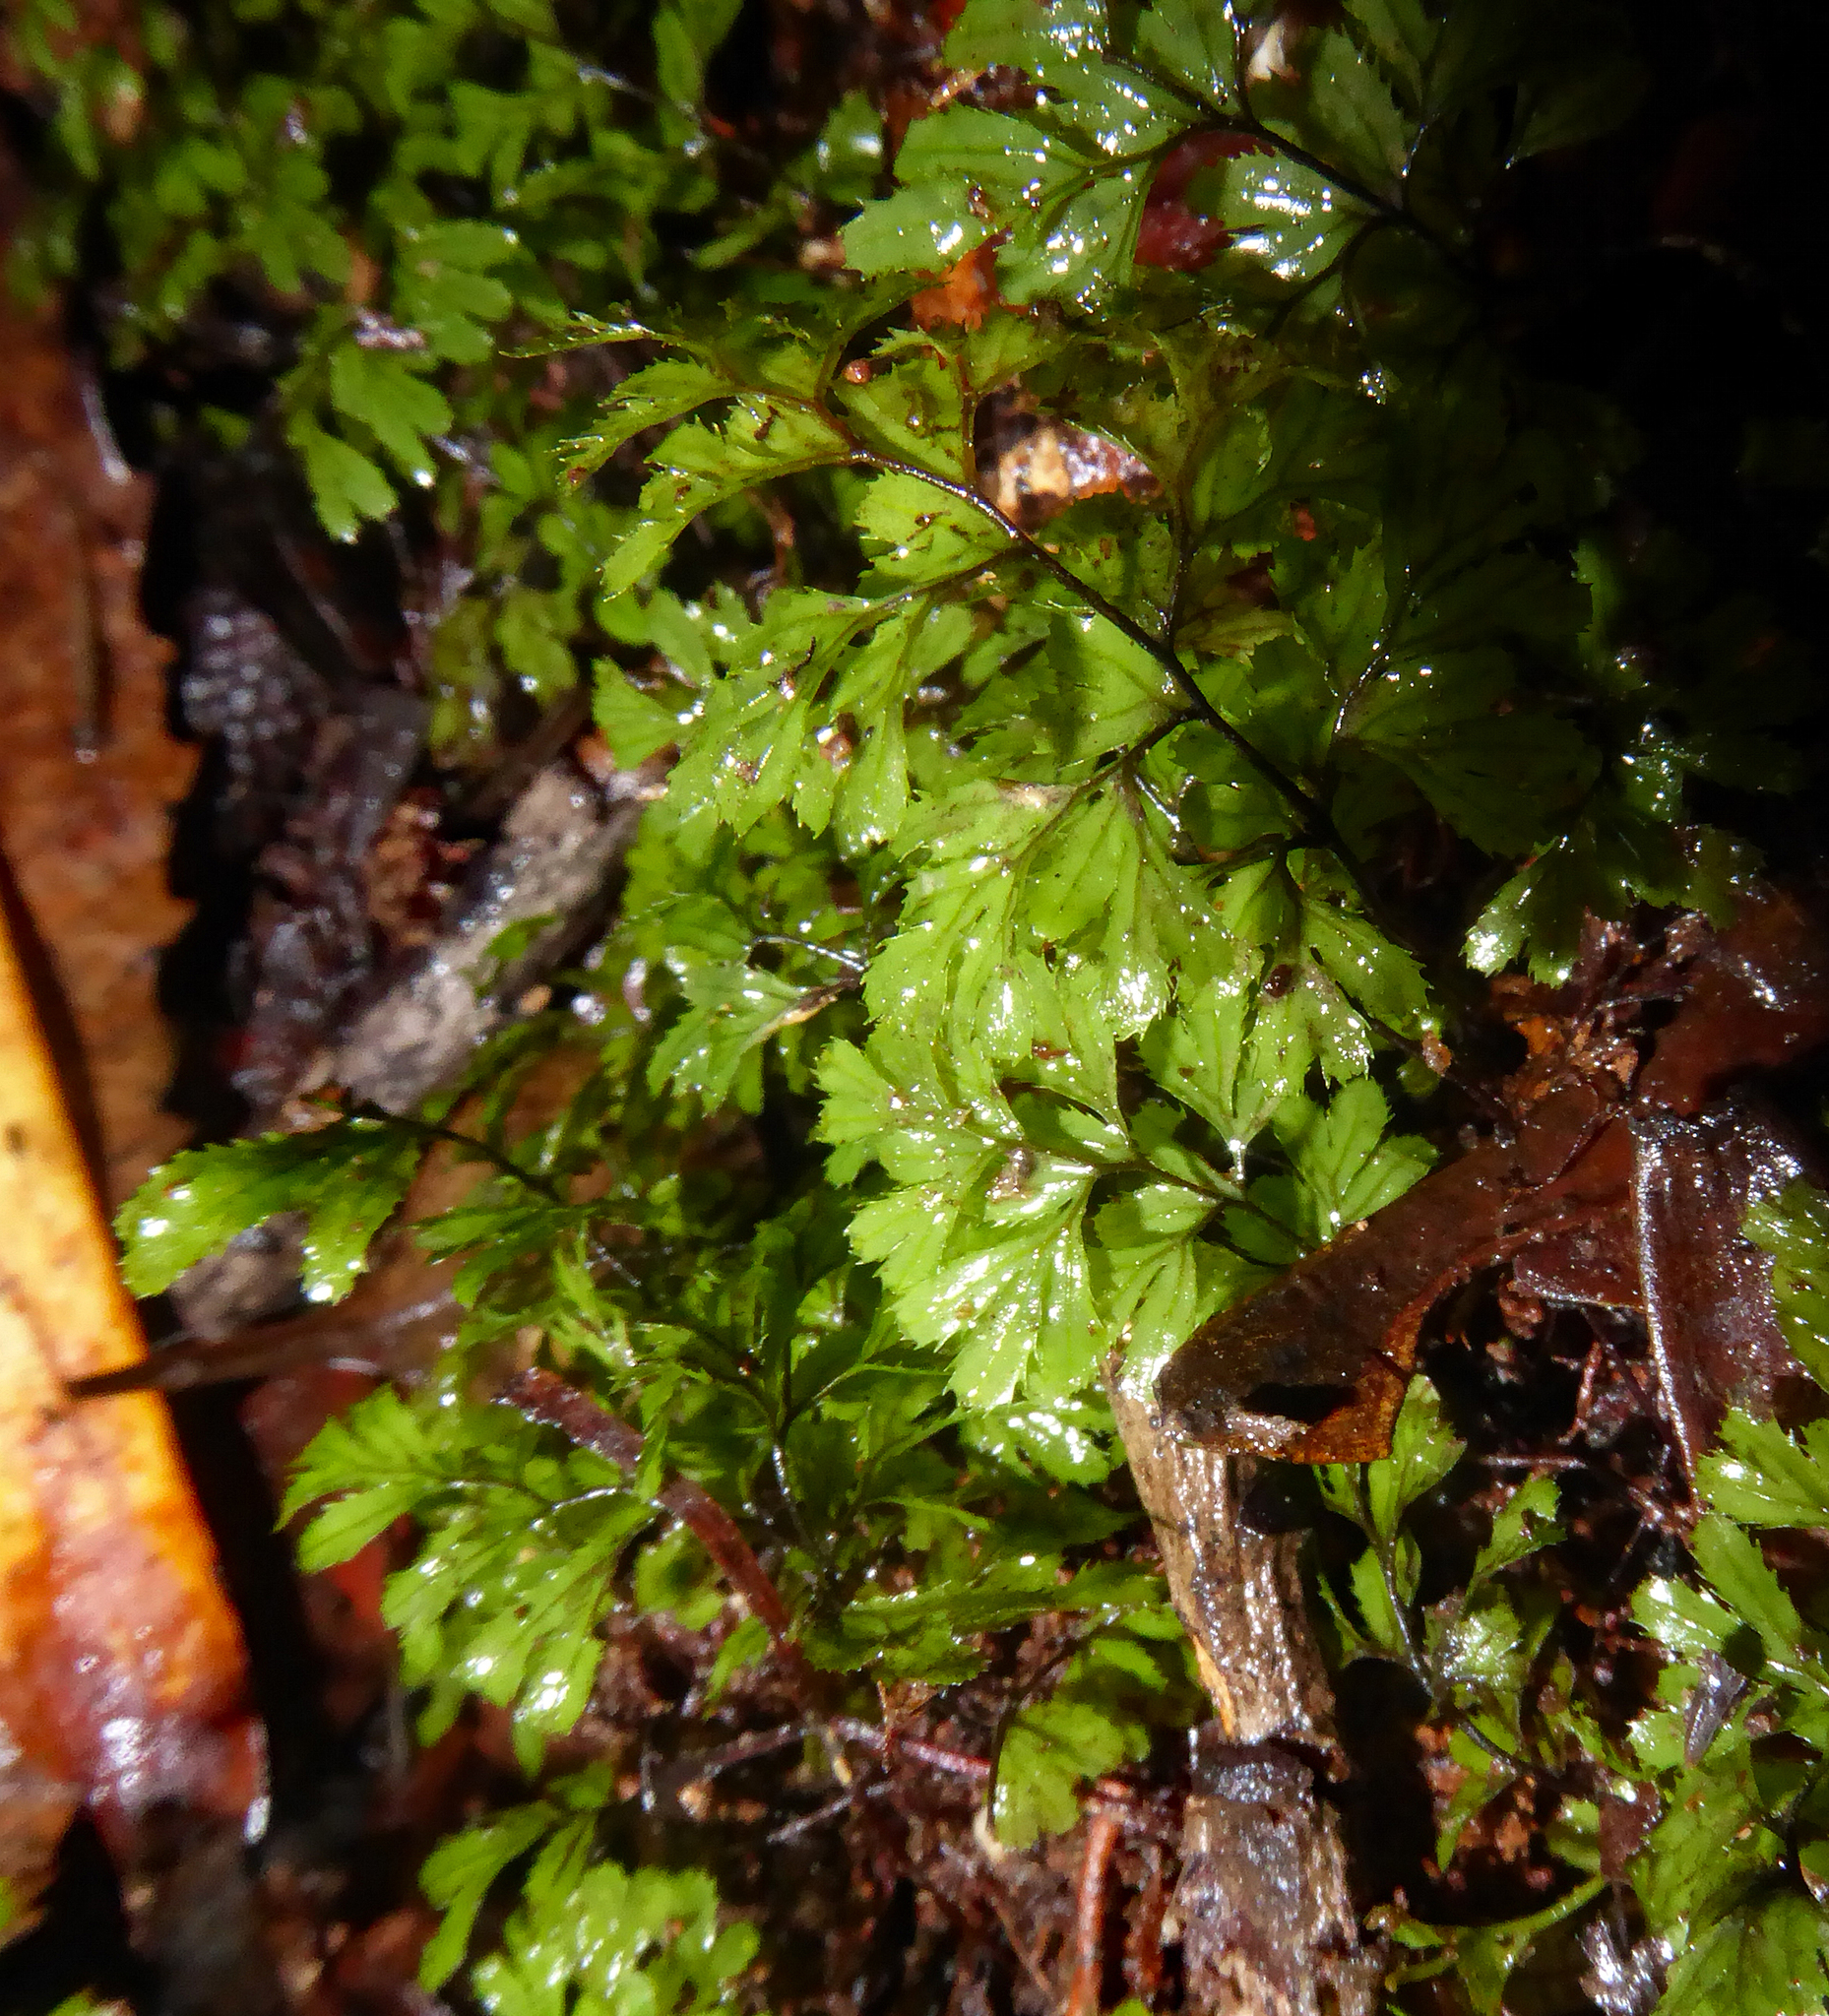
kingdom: Plantae
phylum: Tracheophyta
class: Polypodiopsida
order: Hymenophyllales
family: Hymenophyllaceae
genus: Hymenophyllum
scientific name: Hymenophyllum revolutum
